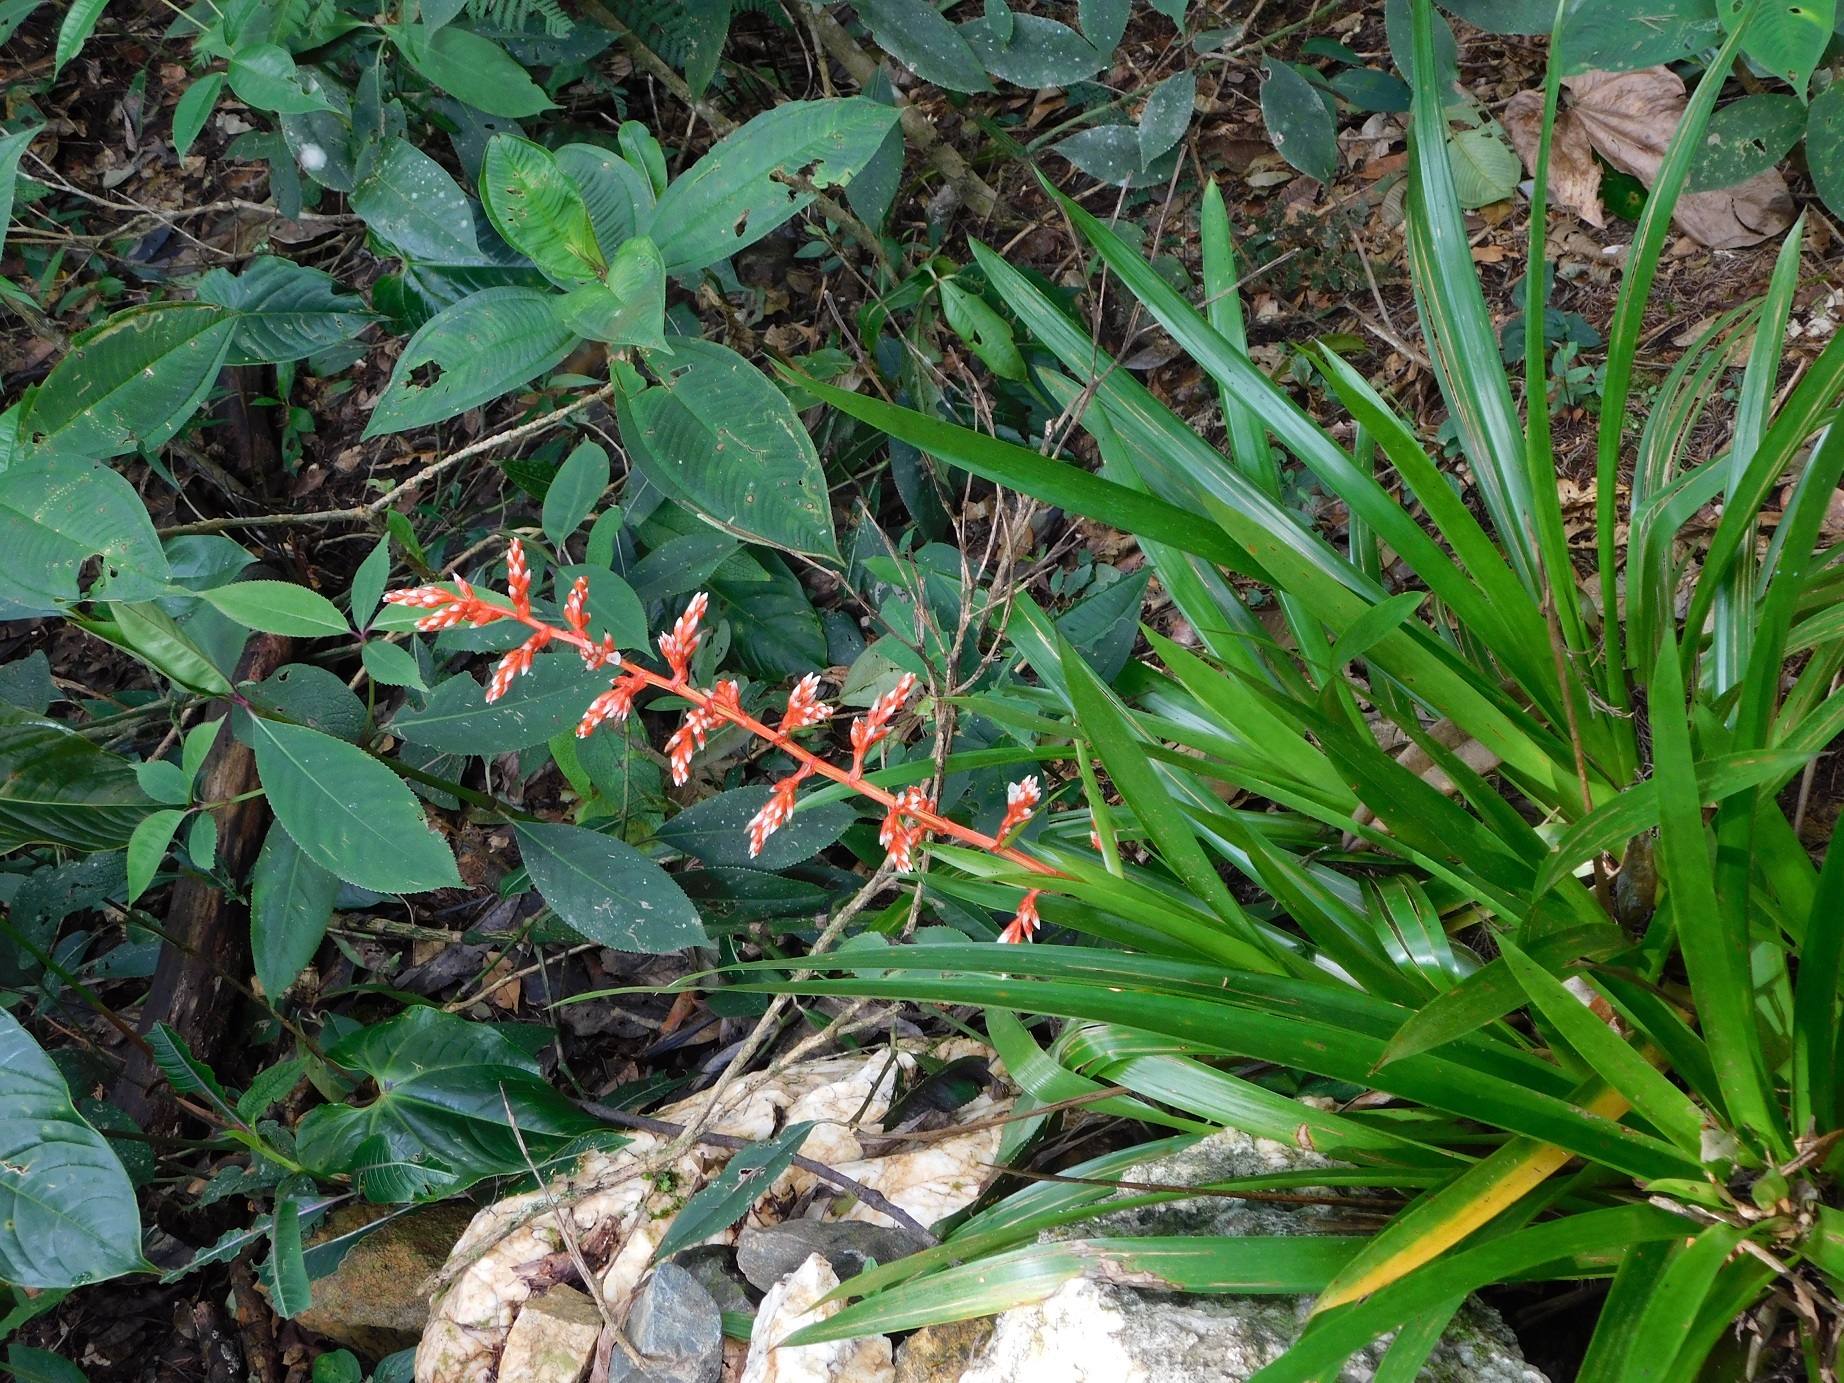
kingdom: Plantae
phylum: Tracheophyta
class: Liliopsida
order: Poales
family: Bromeliaceae
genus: Guzmania
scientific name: Guzmania cundinamarcae
